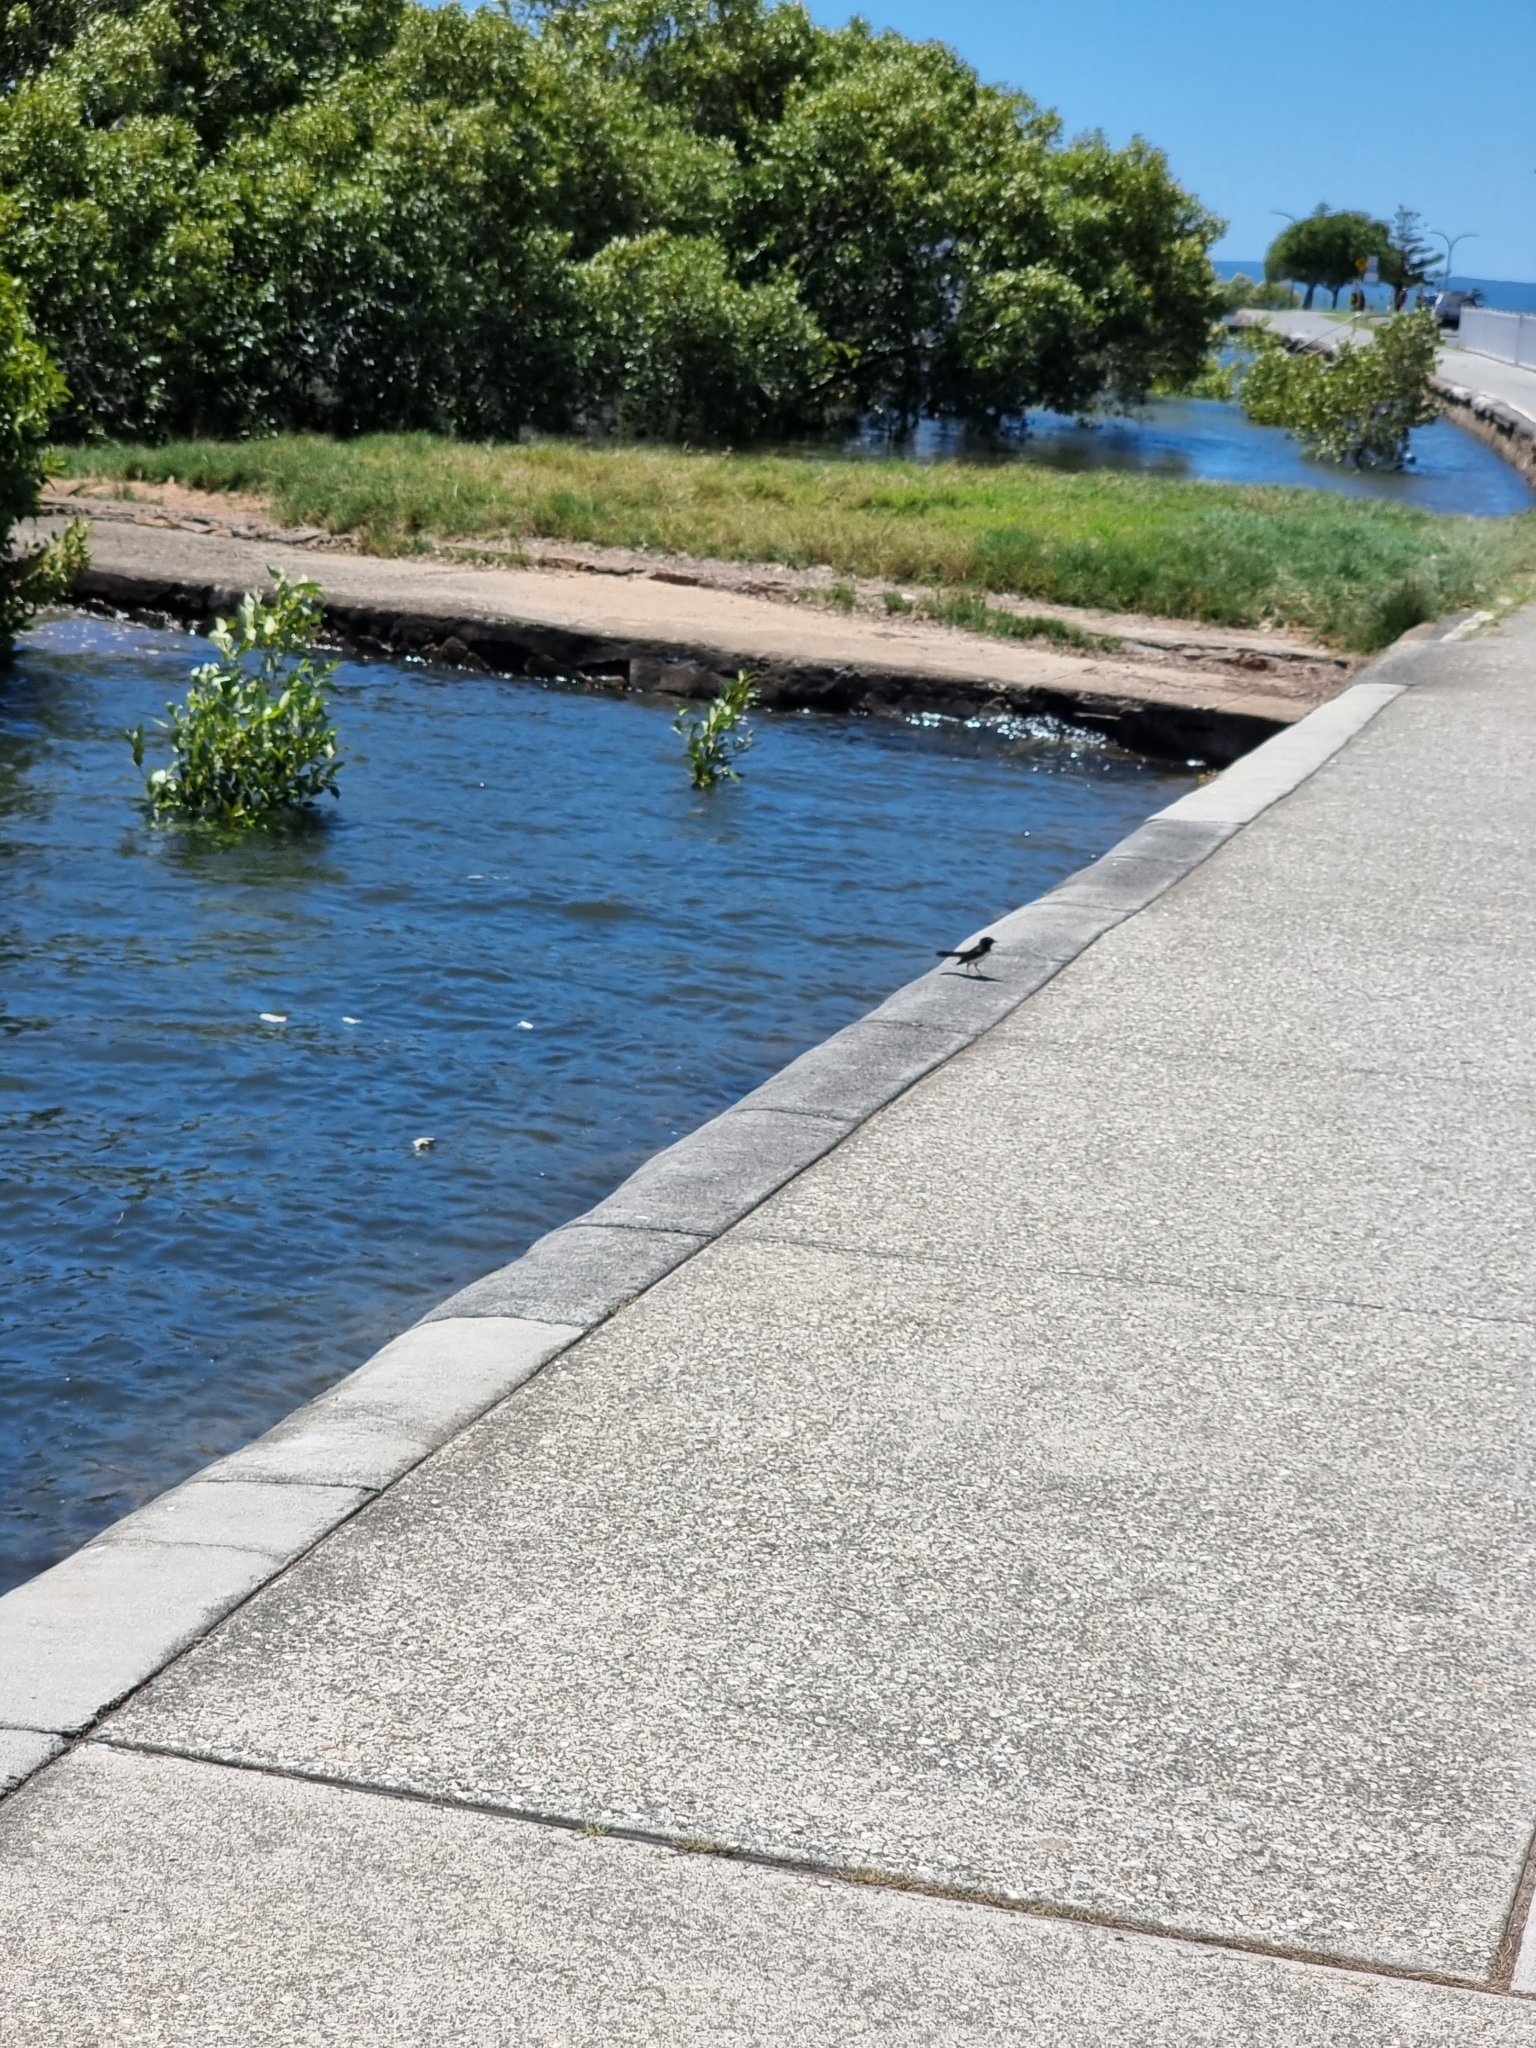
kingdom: Animalia
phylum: Chordata
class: Aves
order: Passeriformes
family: Rhipiduridae
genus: Rhipidura
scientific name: Rhipidura leucophrys
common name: Willie wagtail
